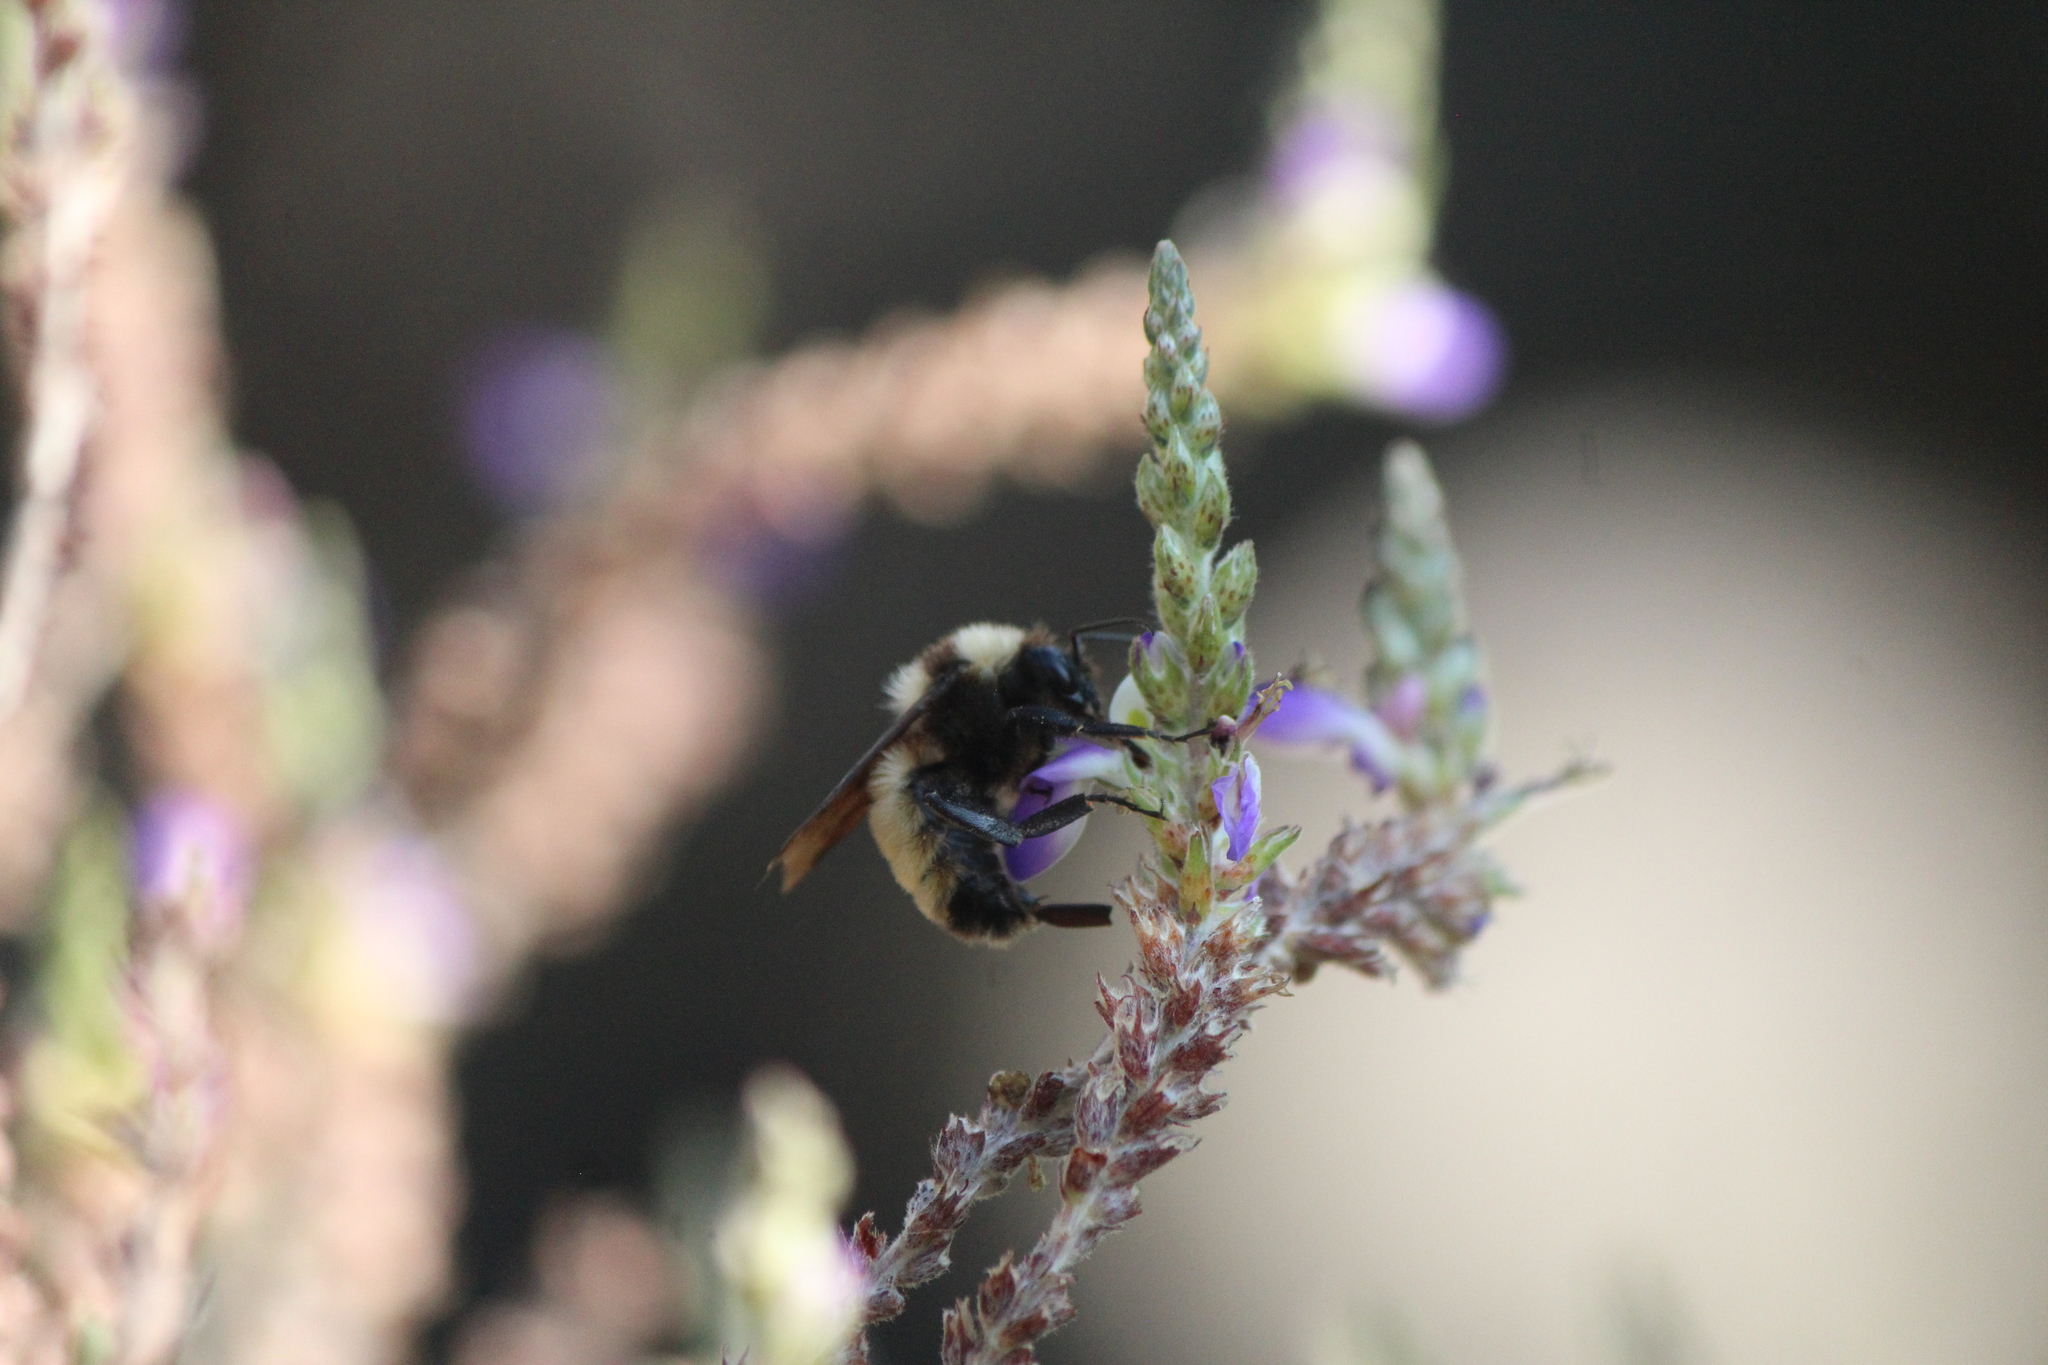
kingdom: Animalia
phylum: Arthropoda
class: Insecta
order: Hymenoptera
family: Apidae
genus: Bombus
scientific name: Bombus sonorus
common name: Sonoran bumble bee
